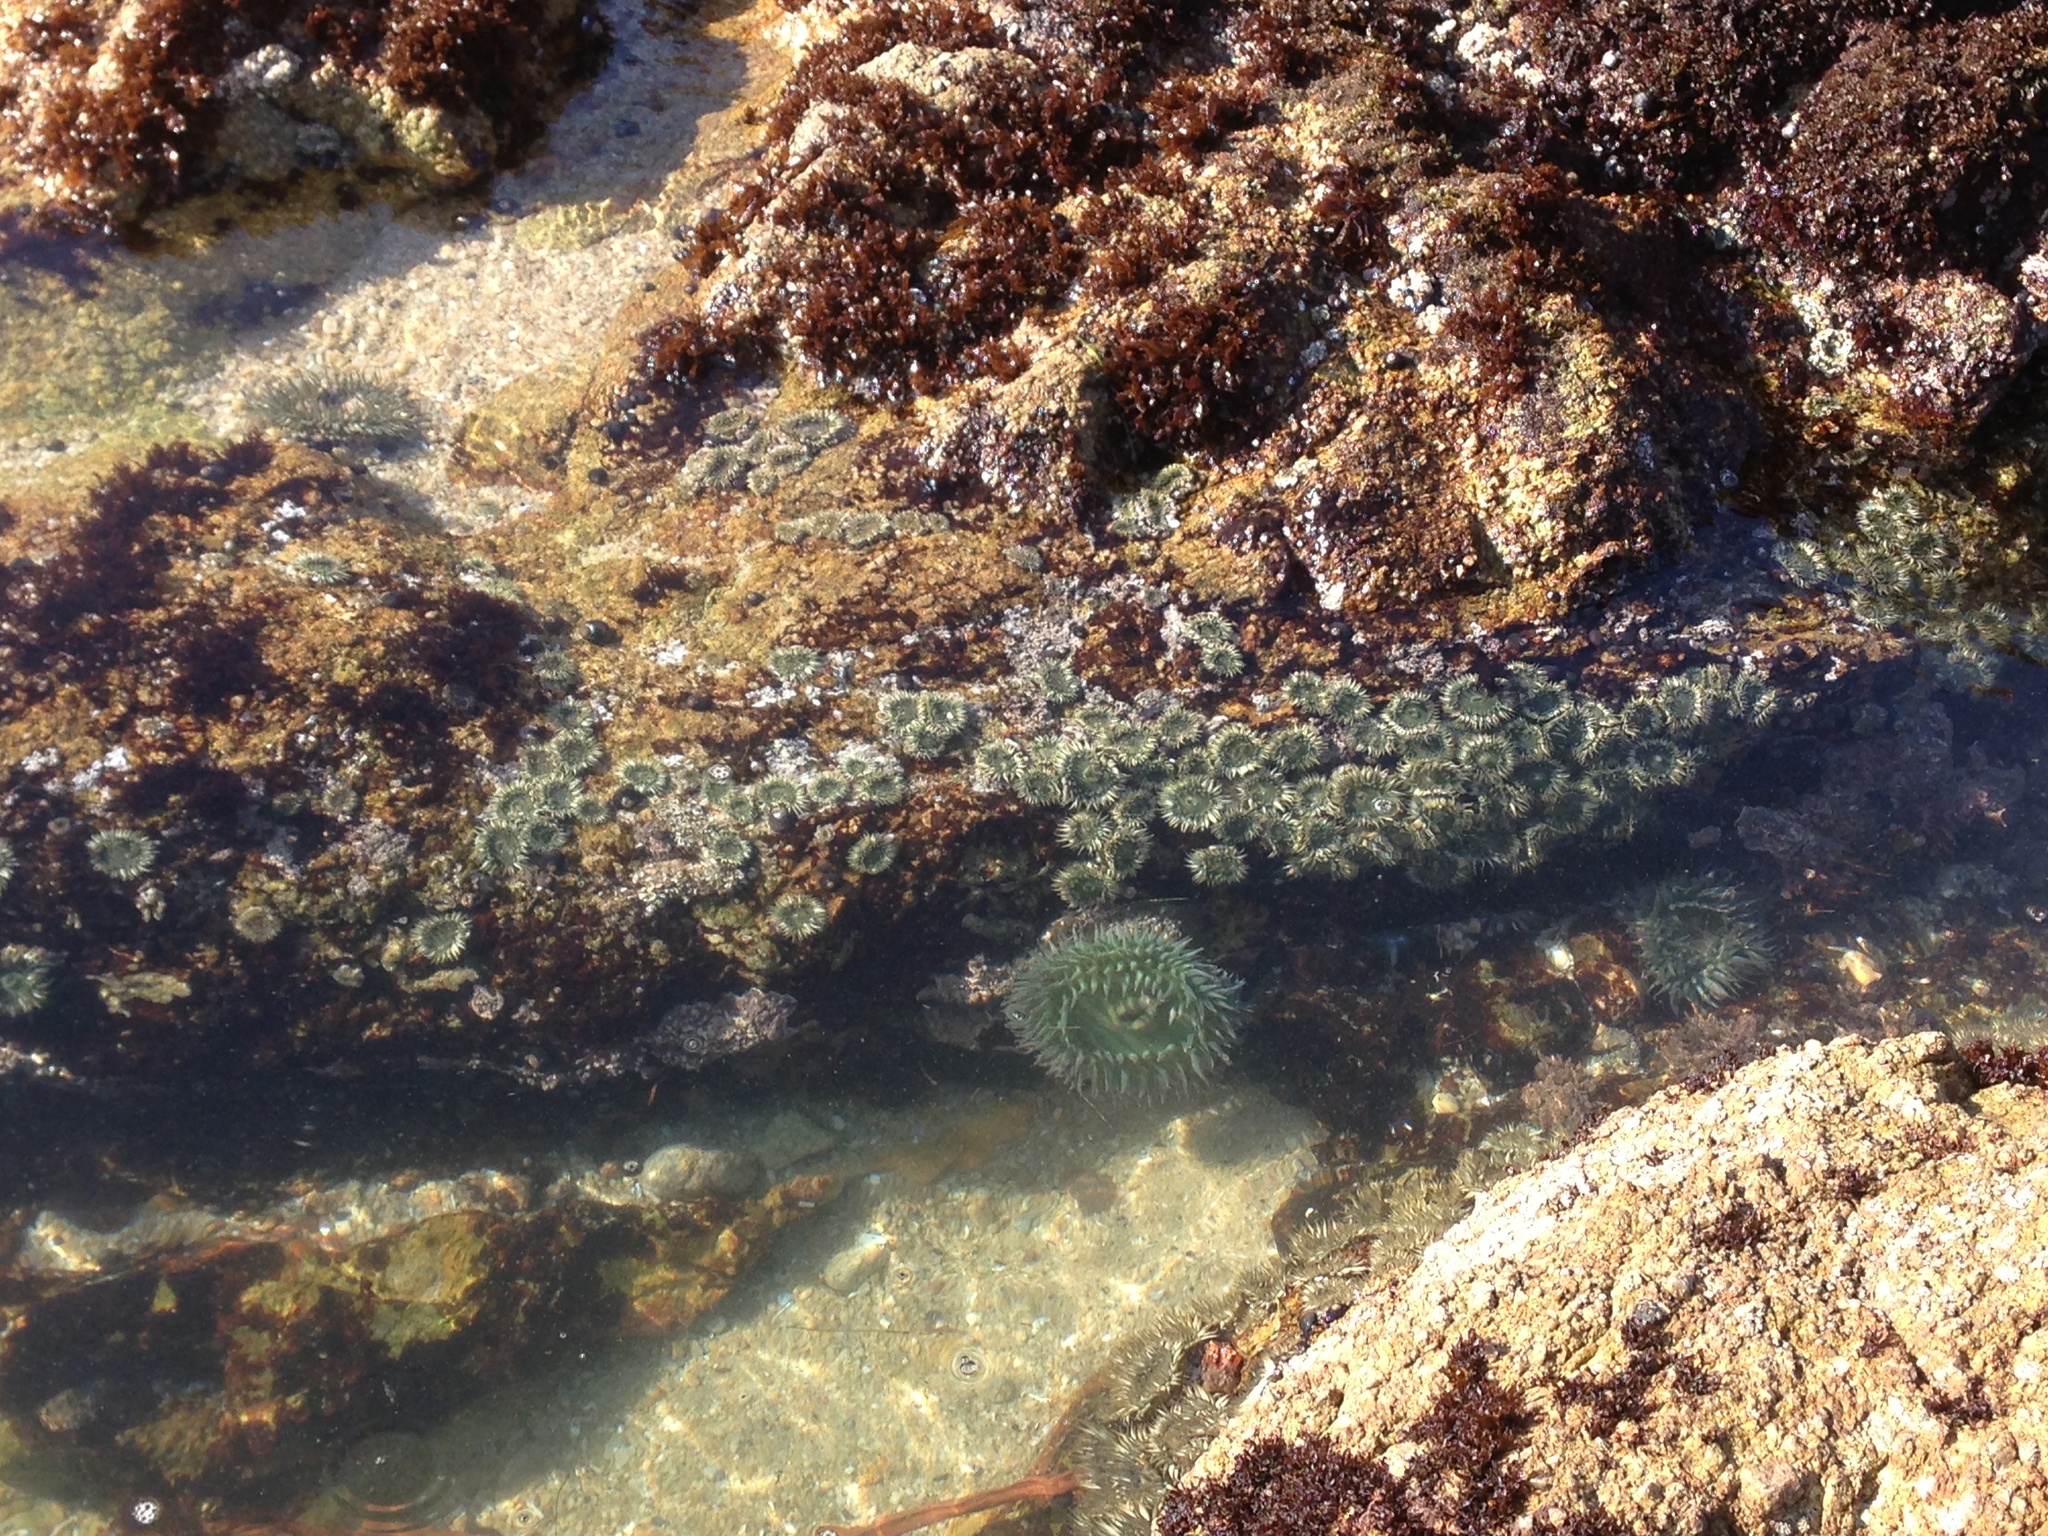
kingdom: Animalia
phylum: Cnidaria
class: Anthozoa
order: Actiniaria
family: Actiniidae
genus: Anthopleura
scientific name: Anthopleura xanthogrammica
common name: Giant green anemone
